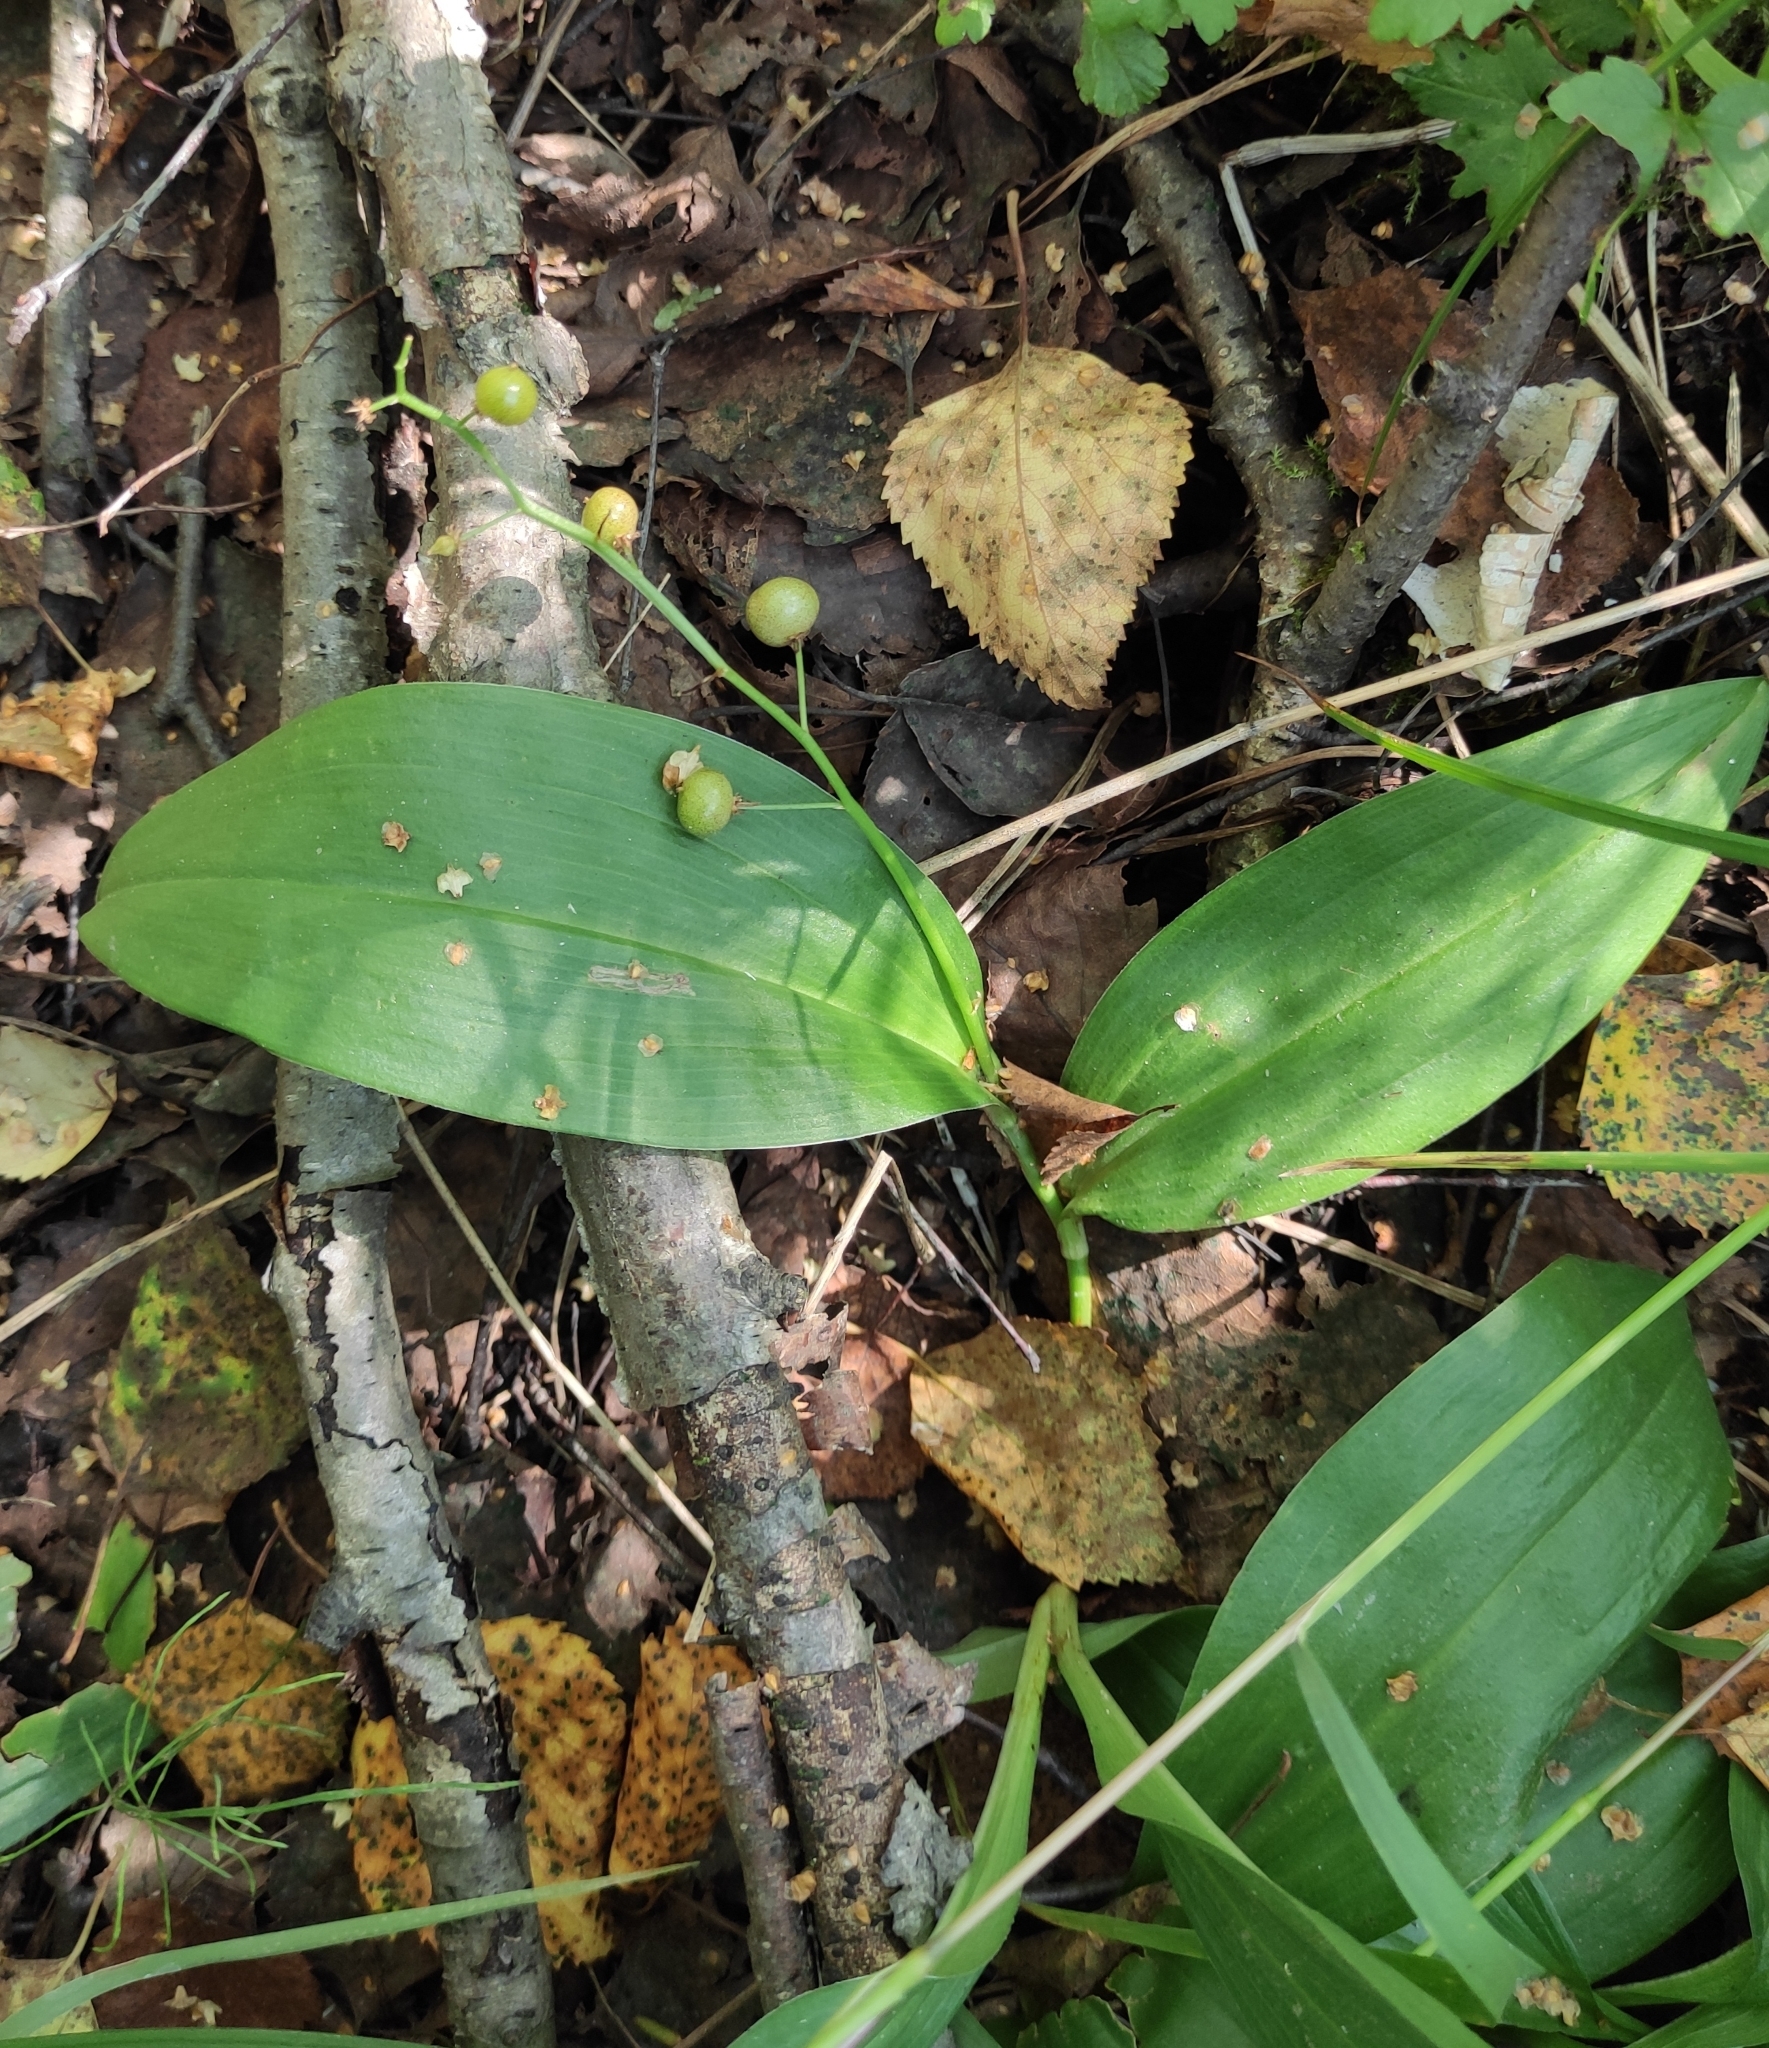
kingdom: Plantae
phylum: Tracheophyta
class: Liliopsida
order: Asparagales
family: Asparagaceae
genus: Maianthemum
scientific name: Maianthemum trifolium
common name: Swamp false solomon's seal
